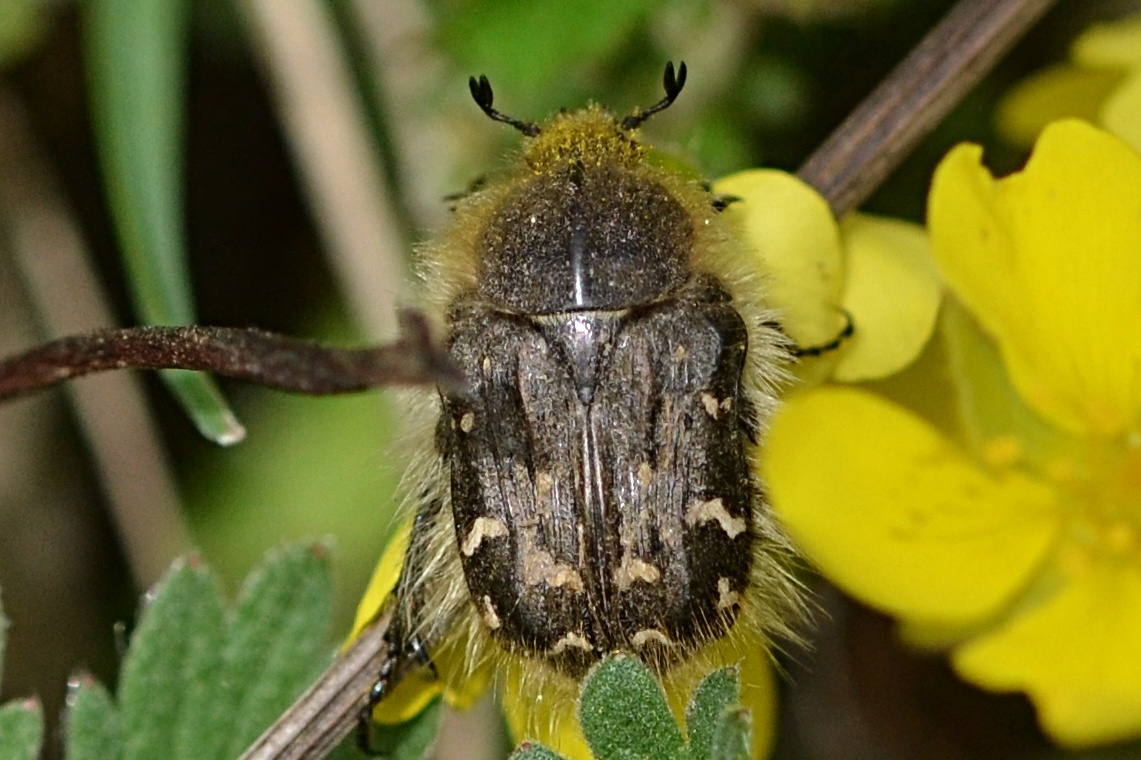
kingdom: Animalia
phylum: Arthropoda
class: Insecta
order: Coleoptera
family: Scarabaeidae
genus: Tropinota
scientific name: Tropinota hirta
